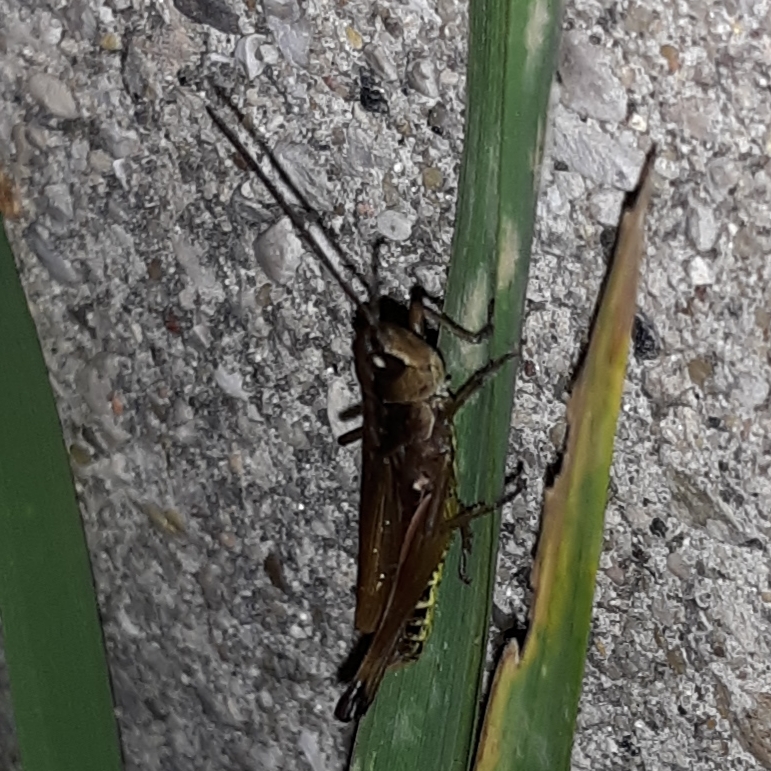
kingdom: Animalia
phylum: Arthropoda
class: Insecta
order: Orthoptera
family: Acrididae
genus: Pseudochorthippus
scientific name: Pseudochorthippus curtipennis
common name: Marsh meadow grasshopper
